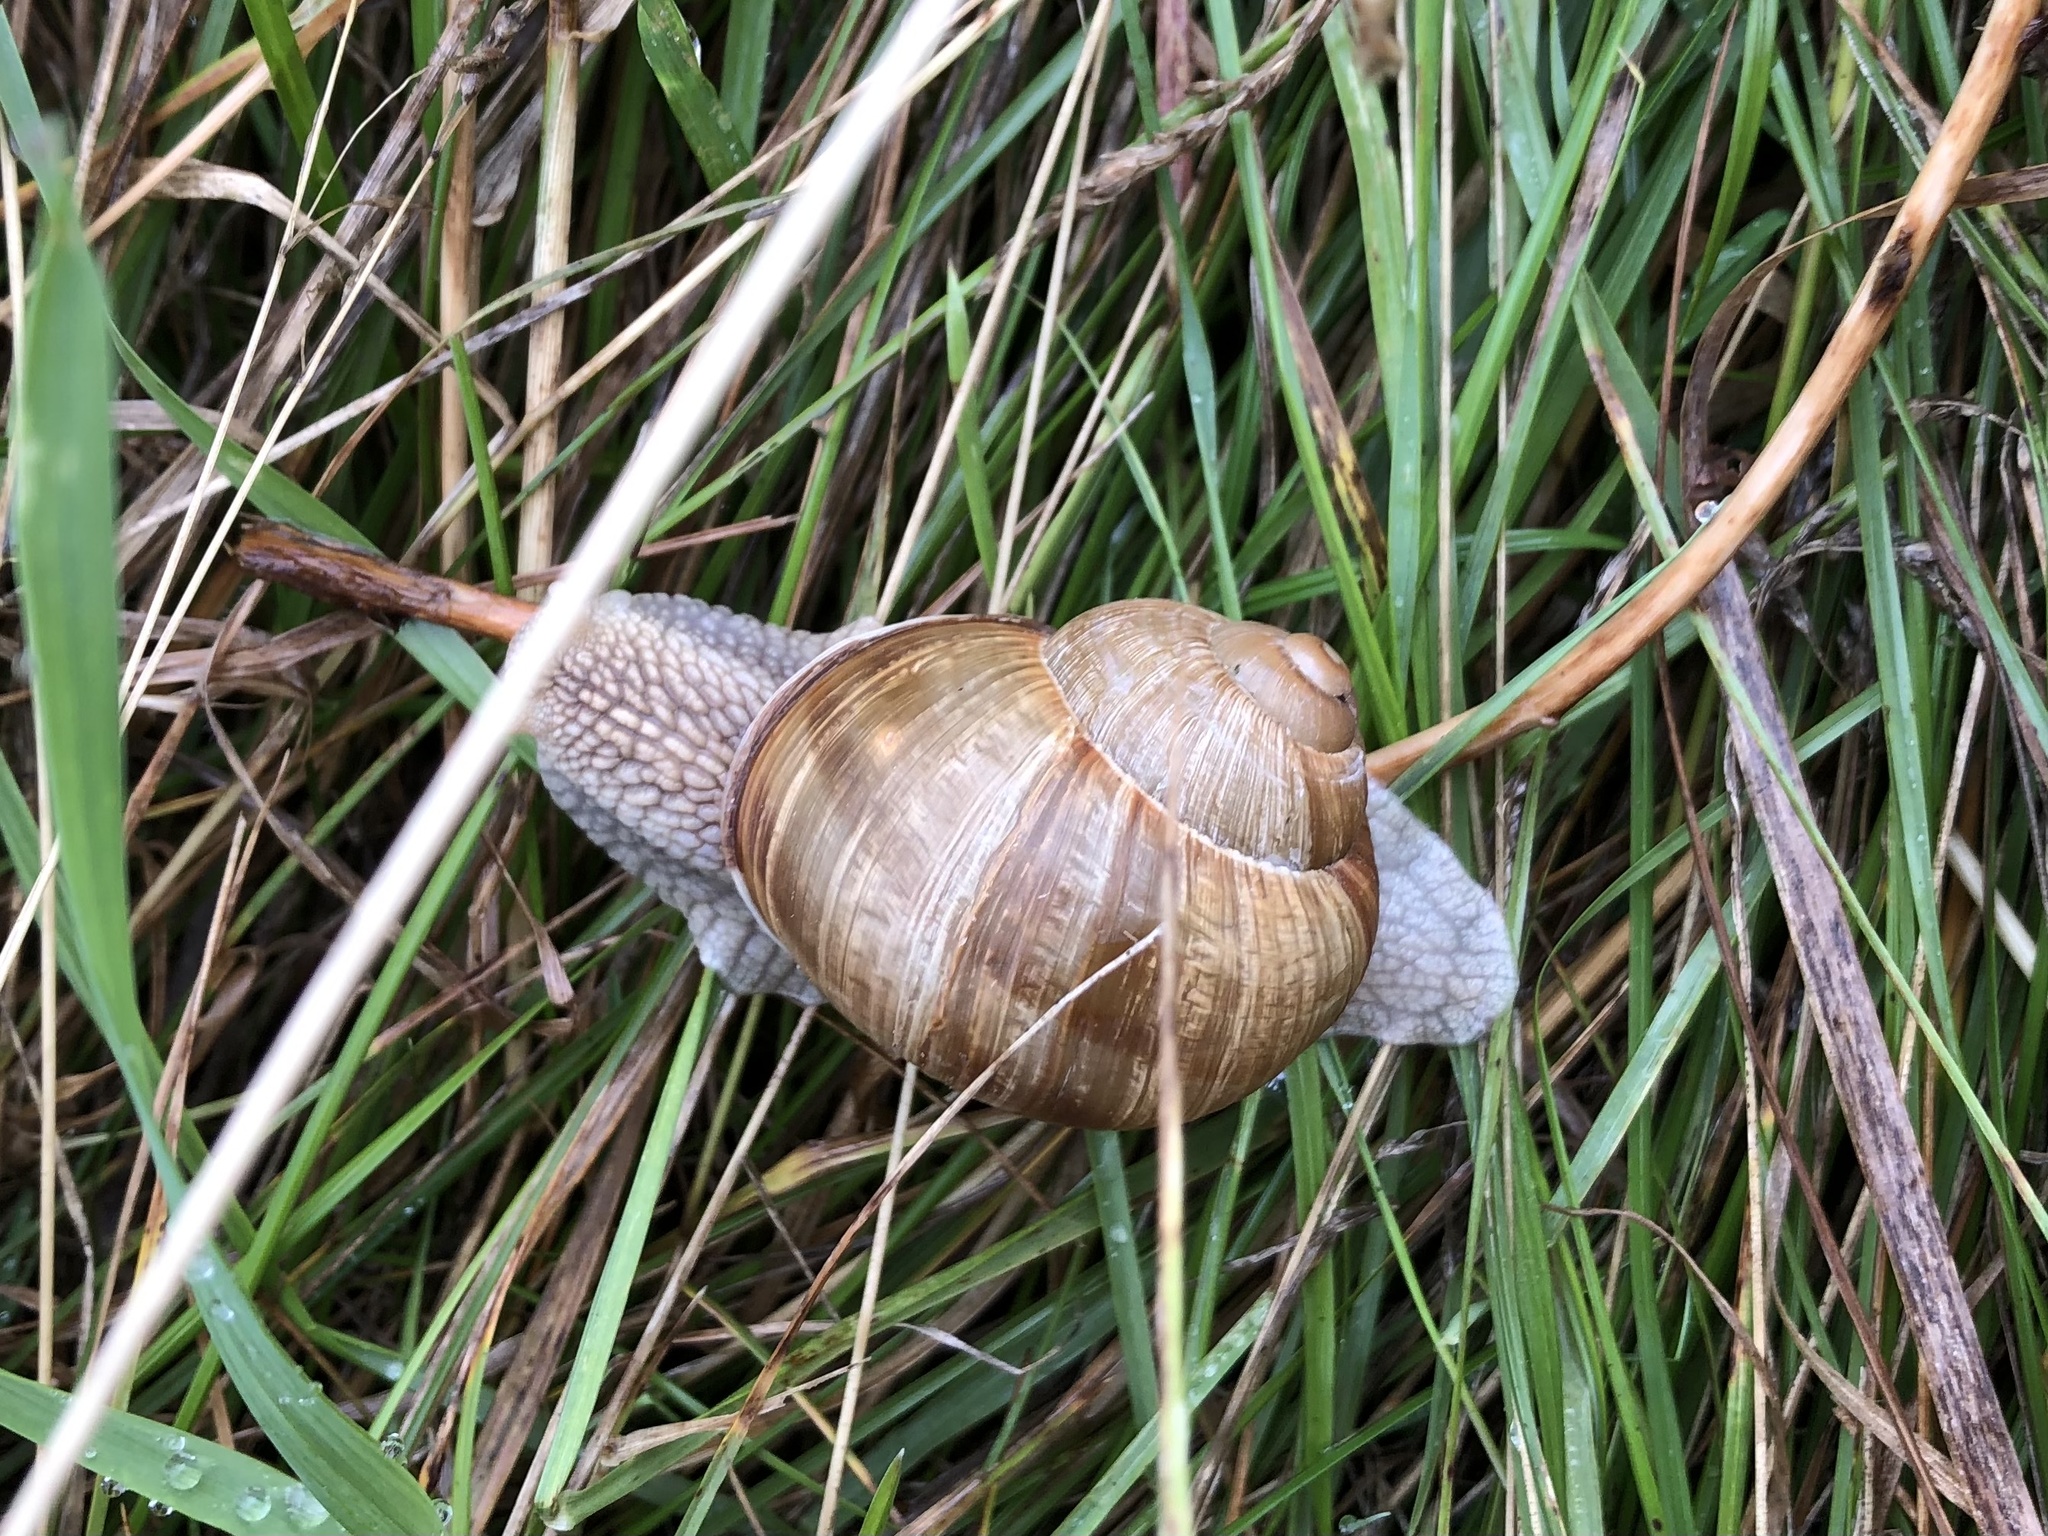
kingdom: Animalia
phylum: Mollusca
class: Gastropoda
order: Stylommatophora
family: Helicidae
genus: Helix
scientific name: Helix pomatia
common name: Roman snail
